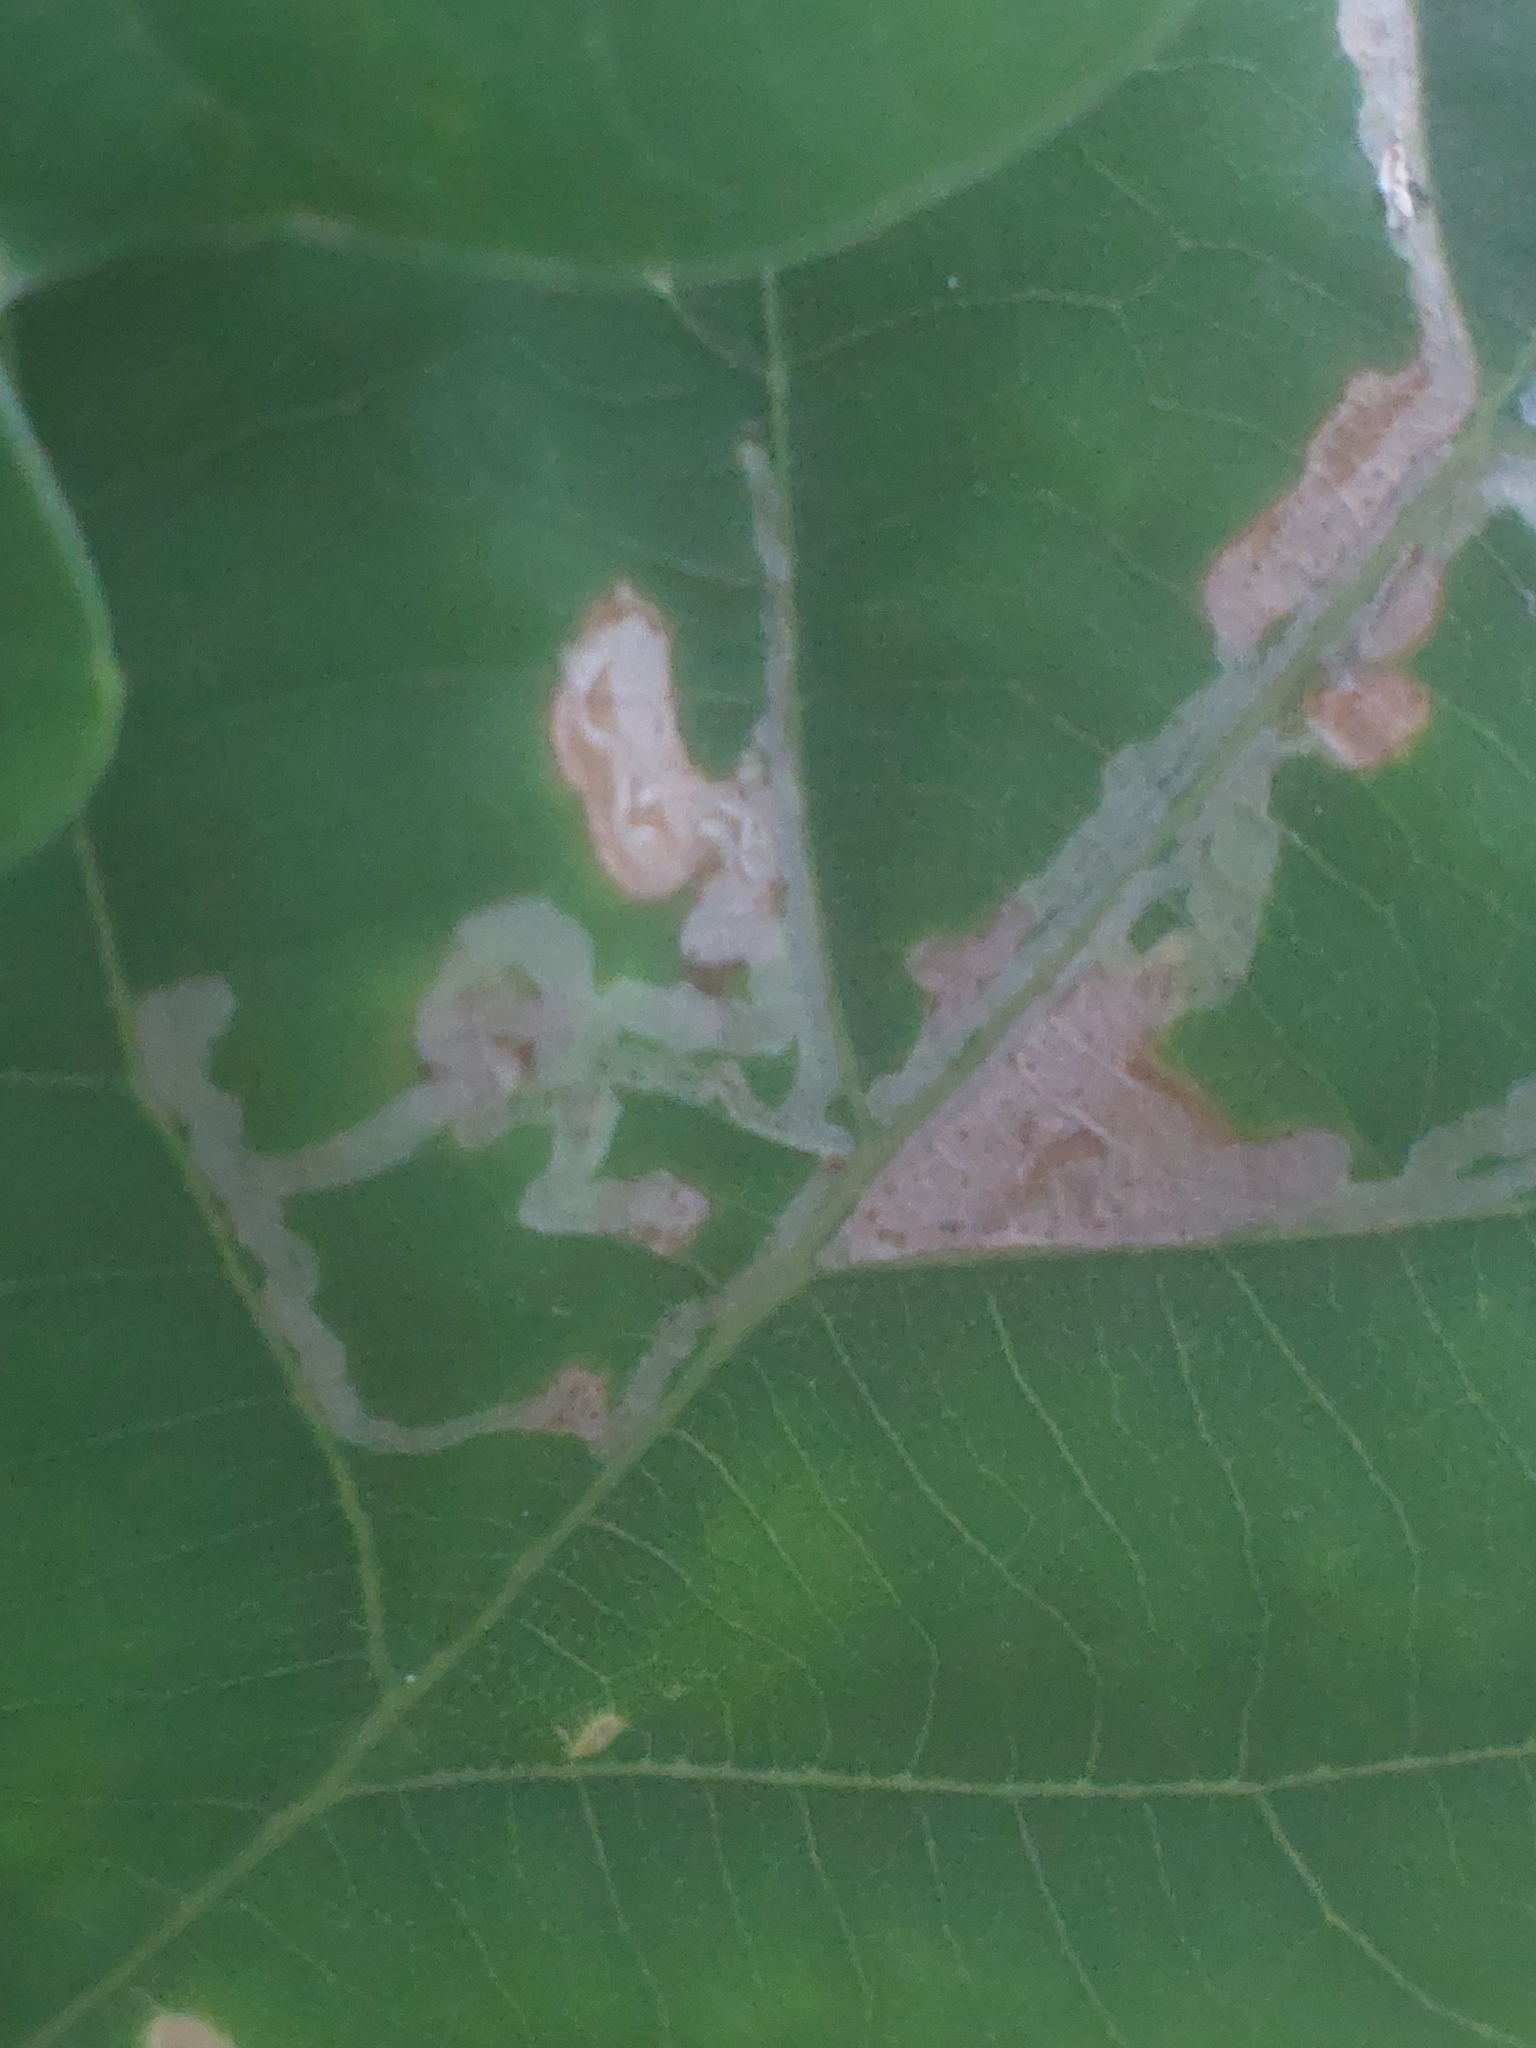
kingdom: Animalia
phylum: Arthropoda
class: Insecta
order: Lepidoptera
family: Gracillariidae
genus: Acrocercops
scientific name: Acrocercops brongniardella
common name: Brown oak slender
